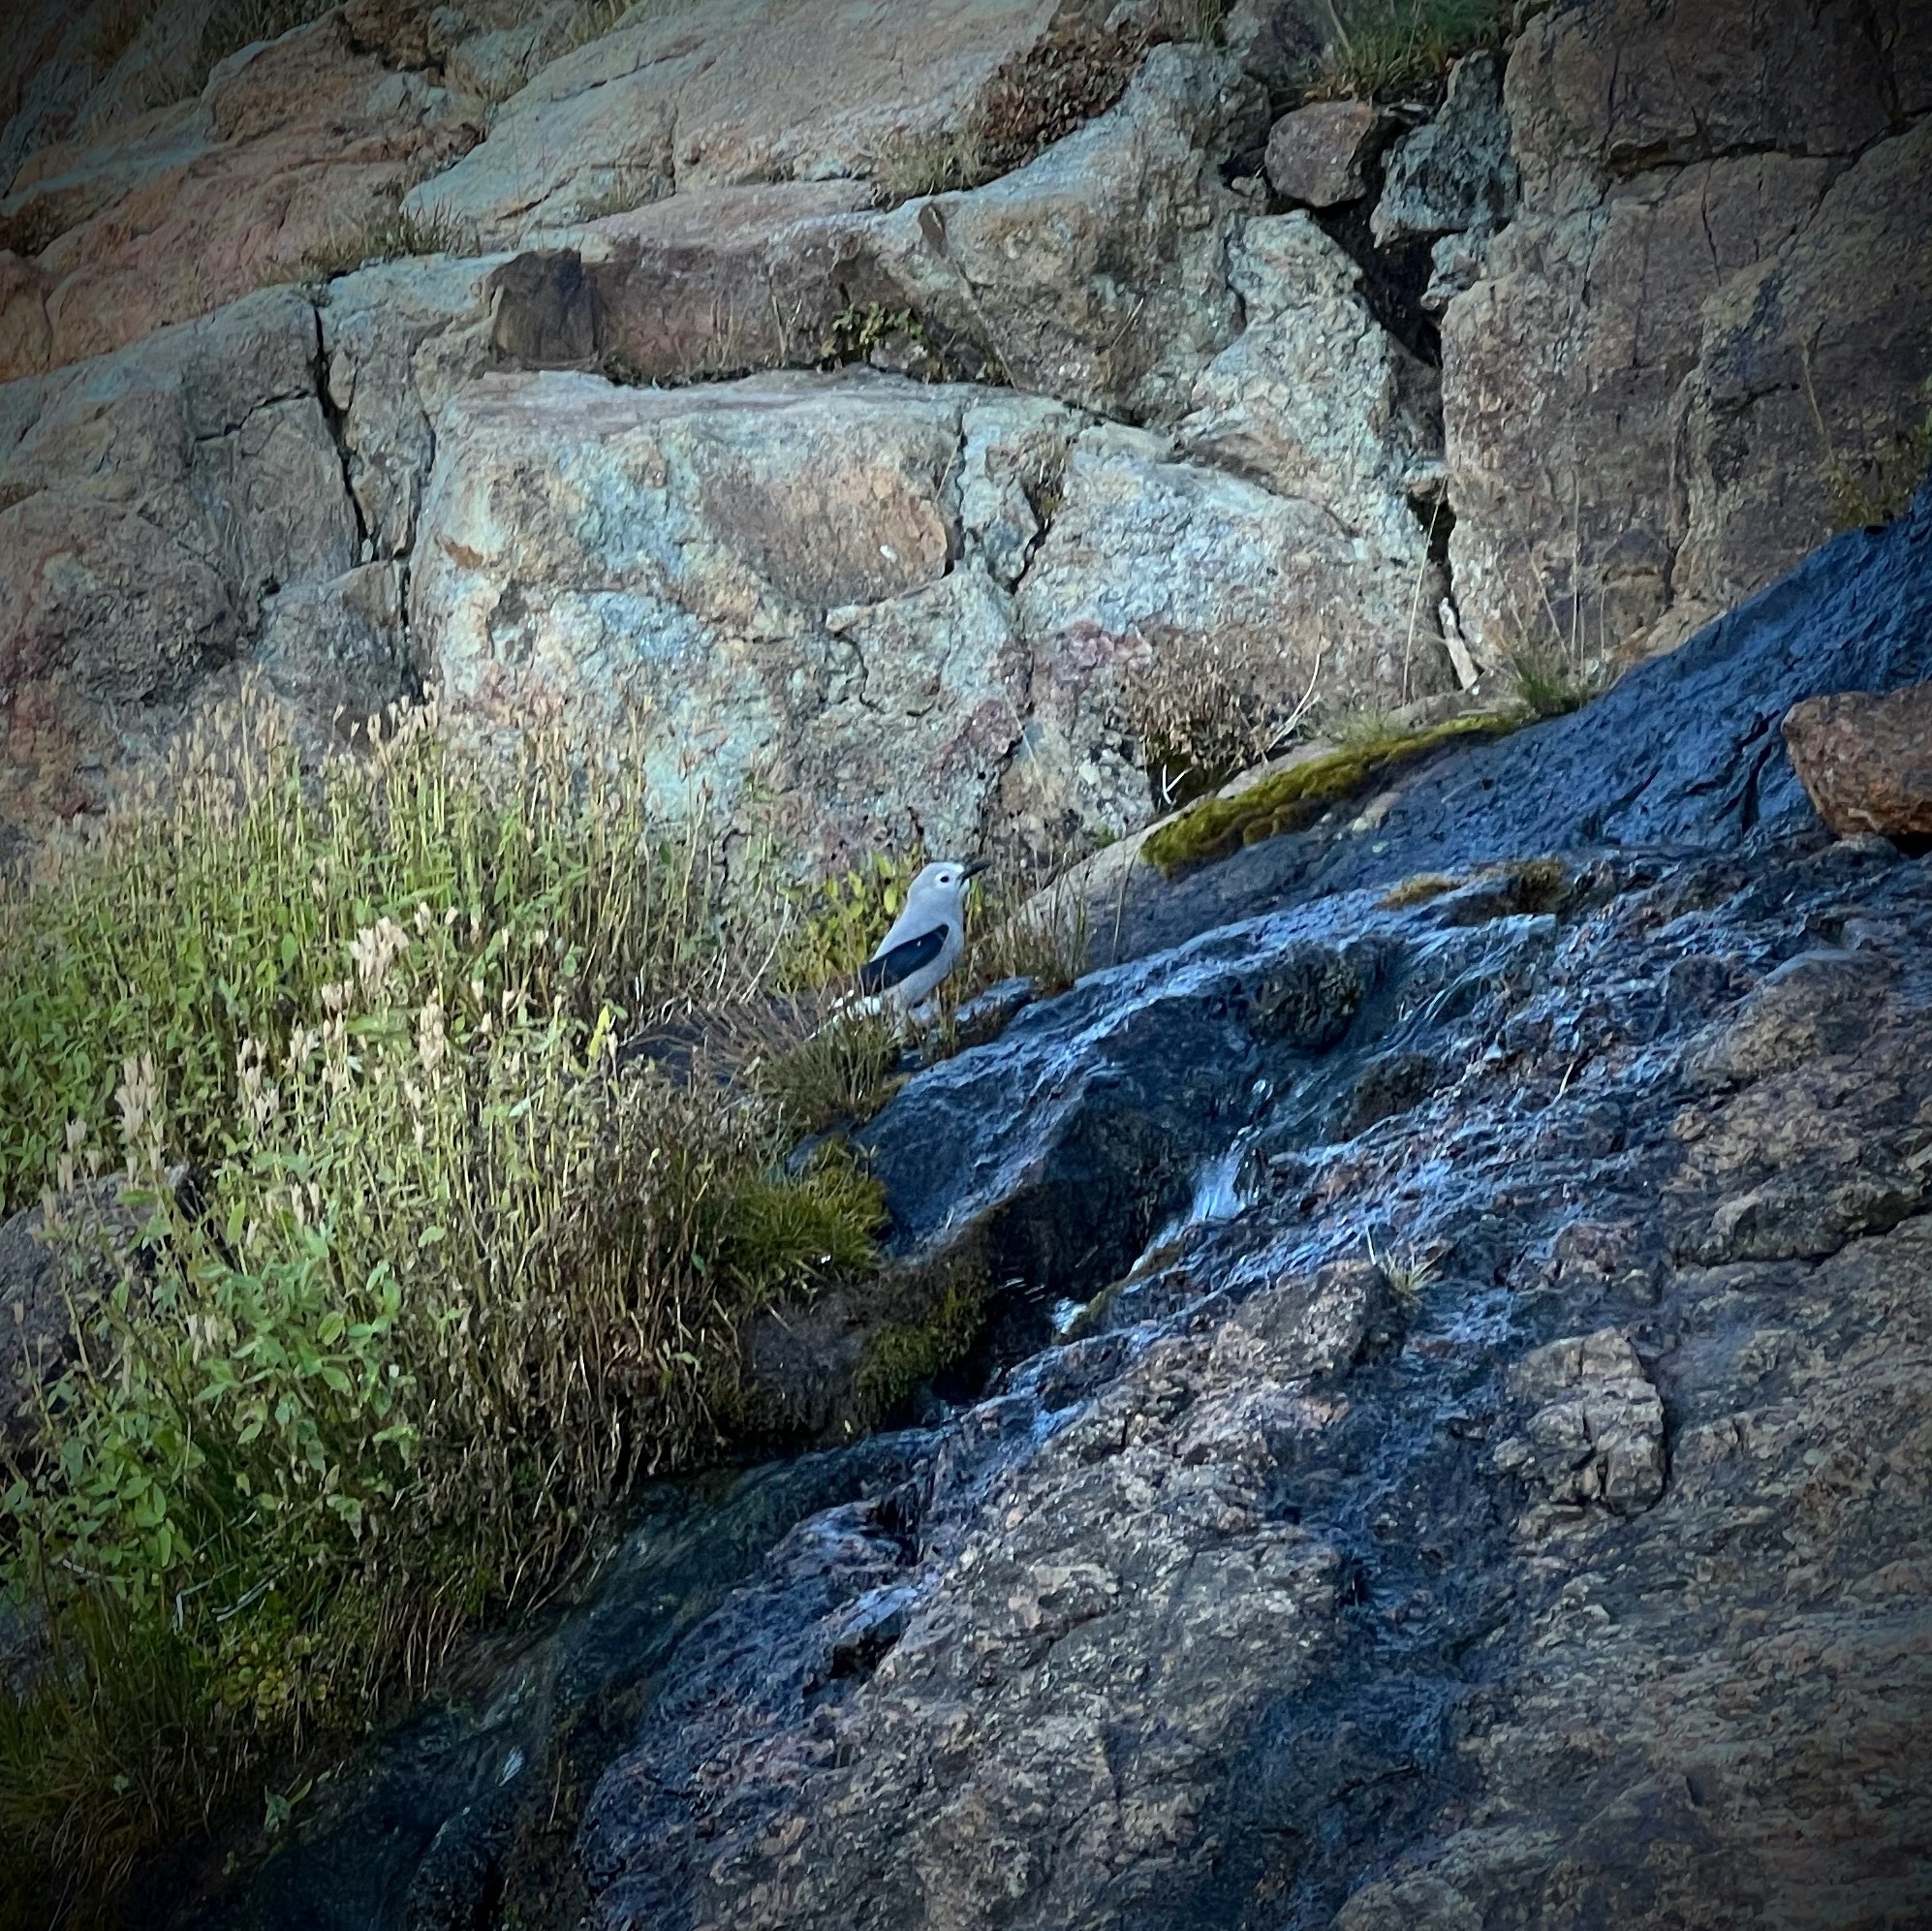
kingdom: Animalia
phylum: Chordata
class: Aves
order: Passeriformes
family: Corvidae
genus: Nucifraga
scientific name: Nucifraga columbiana
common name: Clark's nutcracker
